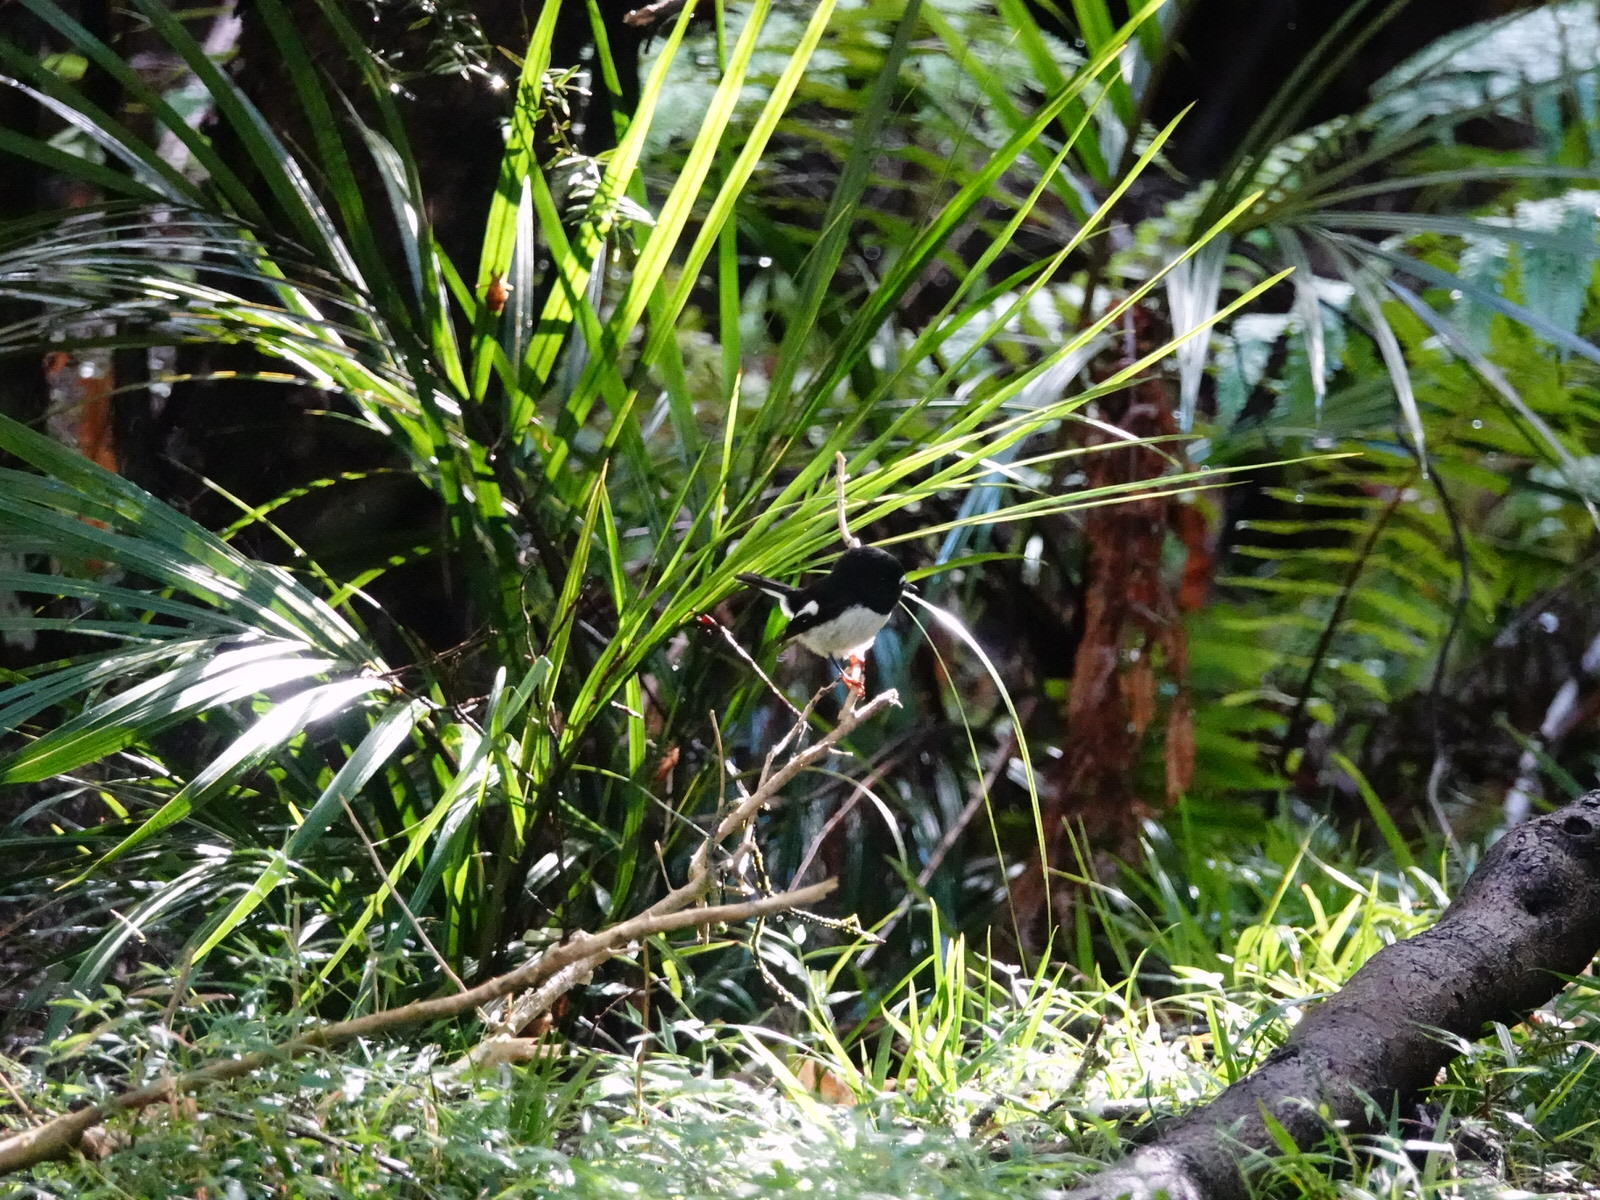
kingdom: Animalia
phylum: Chordata
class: Aves
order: Passeriformes
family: Petroicidae
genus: Petroica
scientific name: Petroica macrocephala
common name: Tomtit
